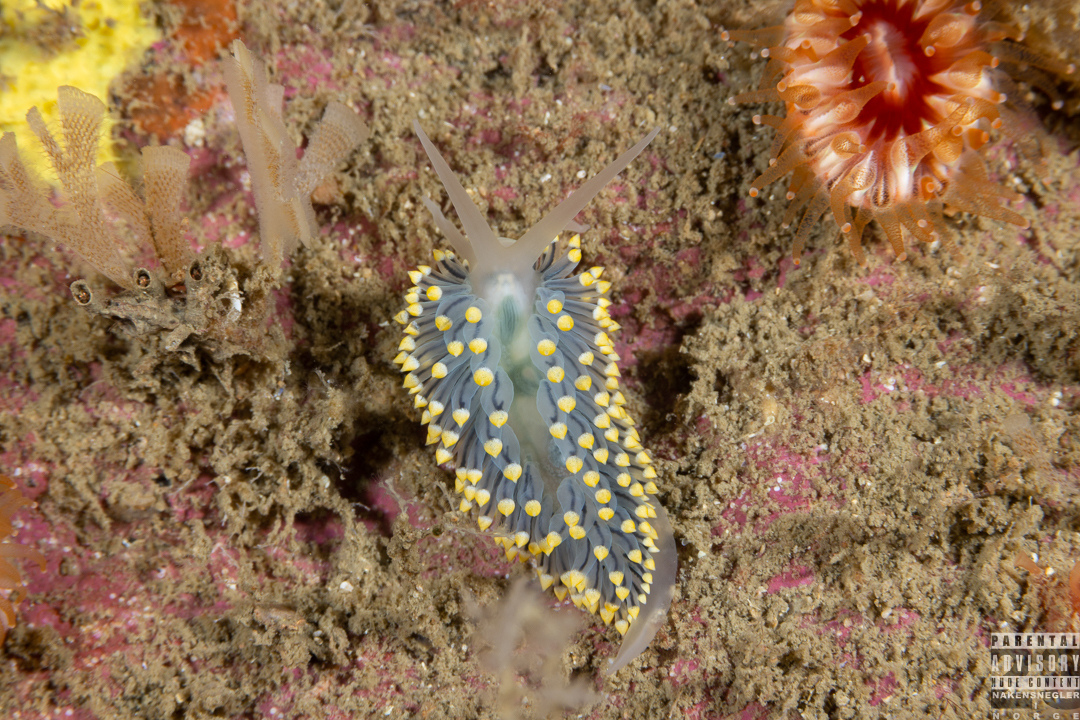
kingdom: Animalia
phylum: Mollusca
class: Gastropoda
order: Nudibranchia
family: Eubranchidae
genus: Eubranchus
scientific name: Eubranchus tricolor
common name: Painted balloon aeolis
